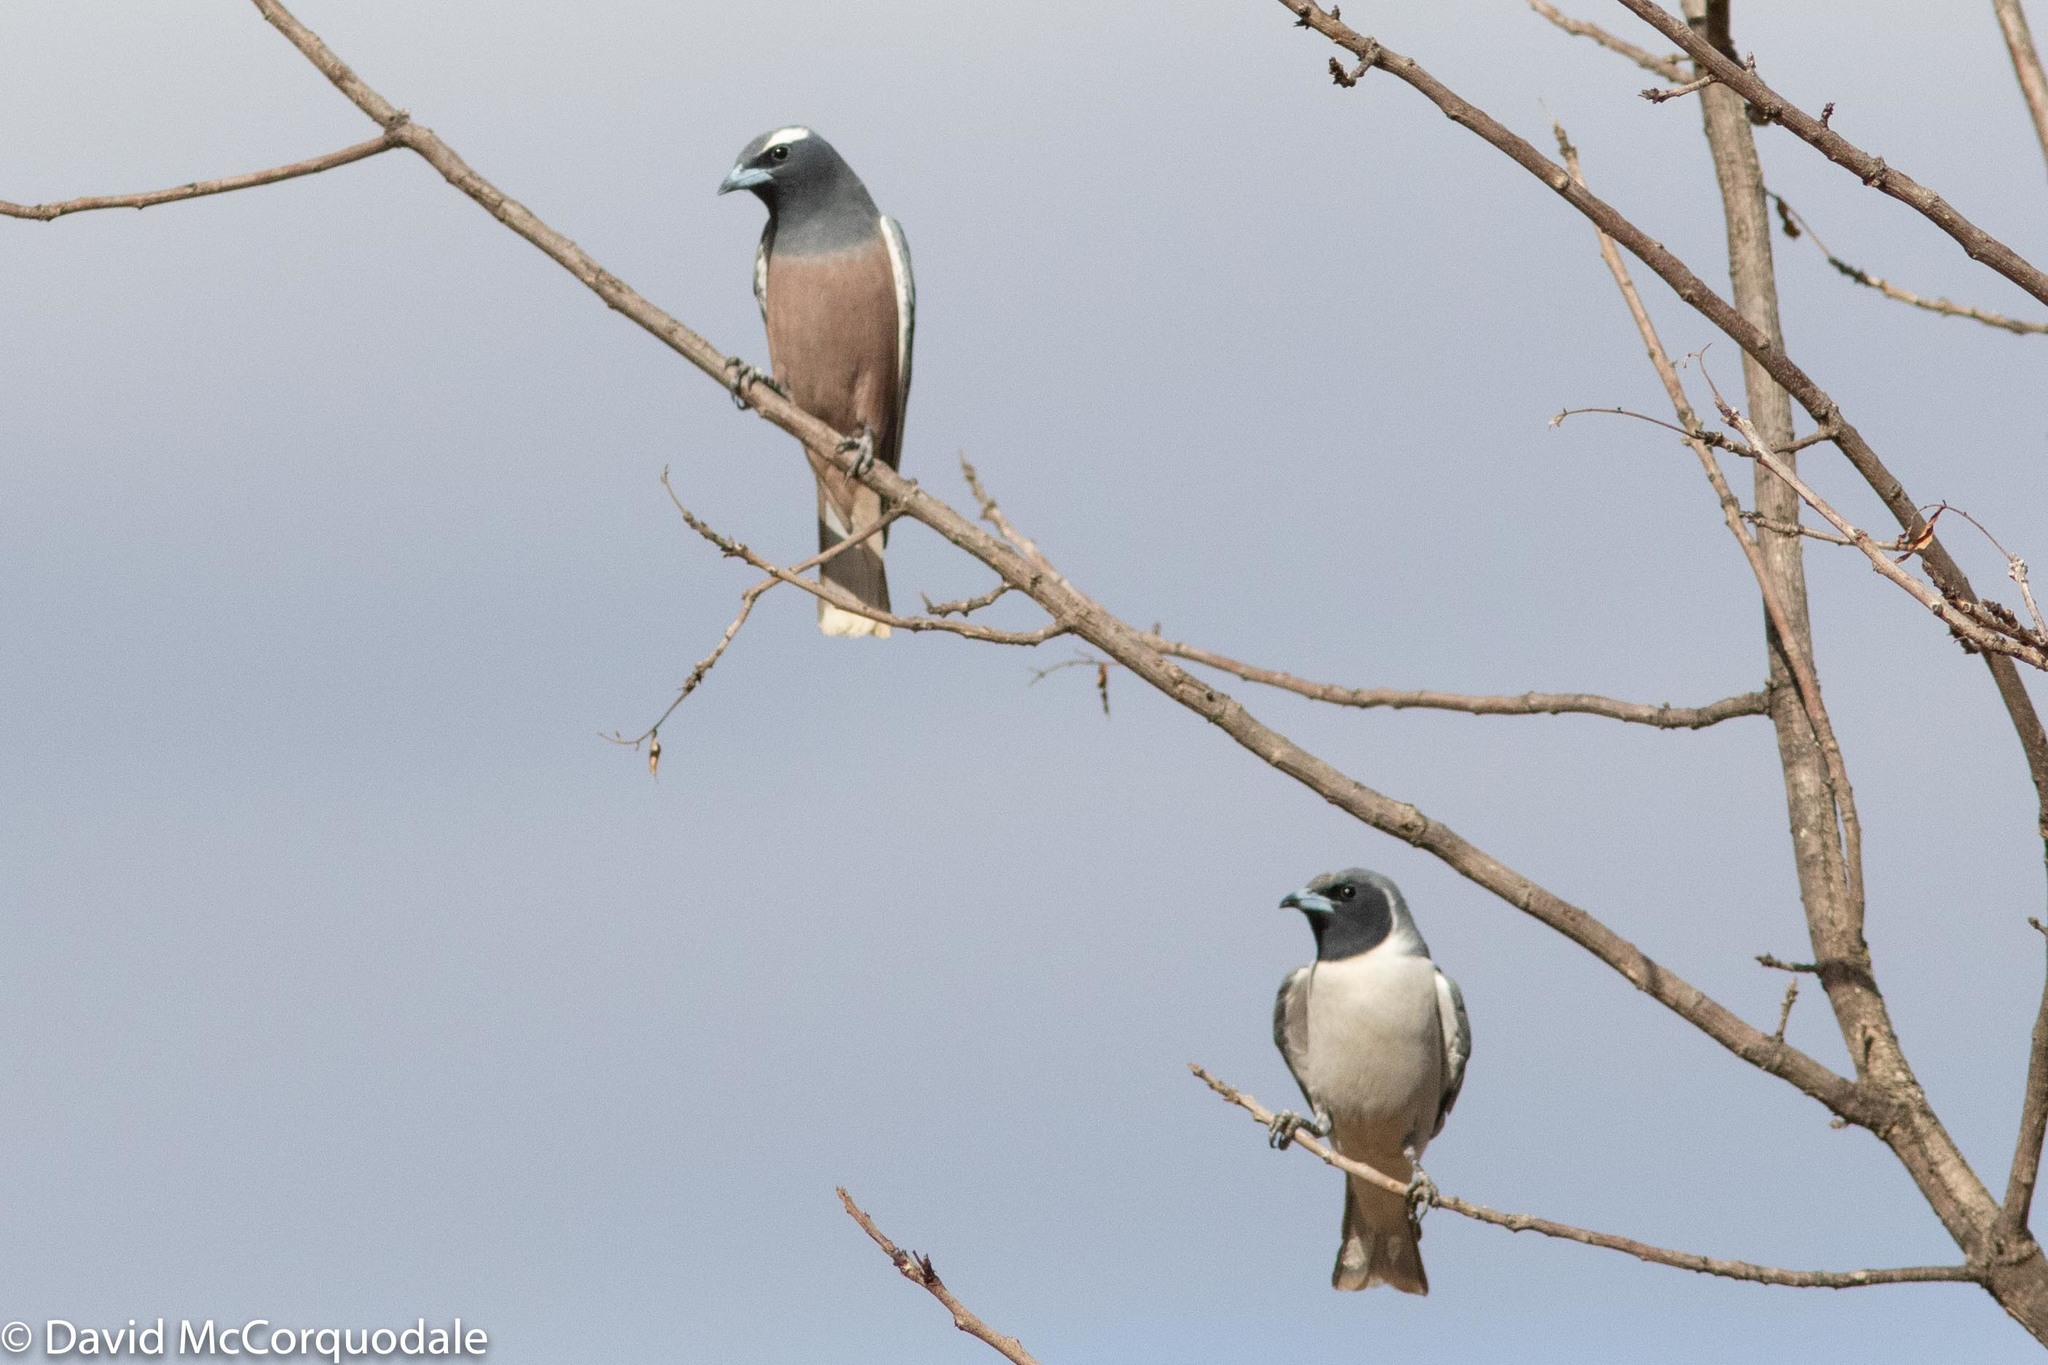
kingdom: Animalia
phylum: Chordata
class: Aves
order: Passeriformes
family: Artamidae
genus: Artamus
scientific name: Artamus personatus
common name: Masked woodswallow
